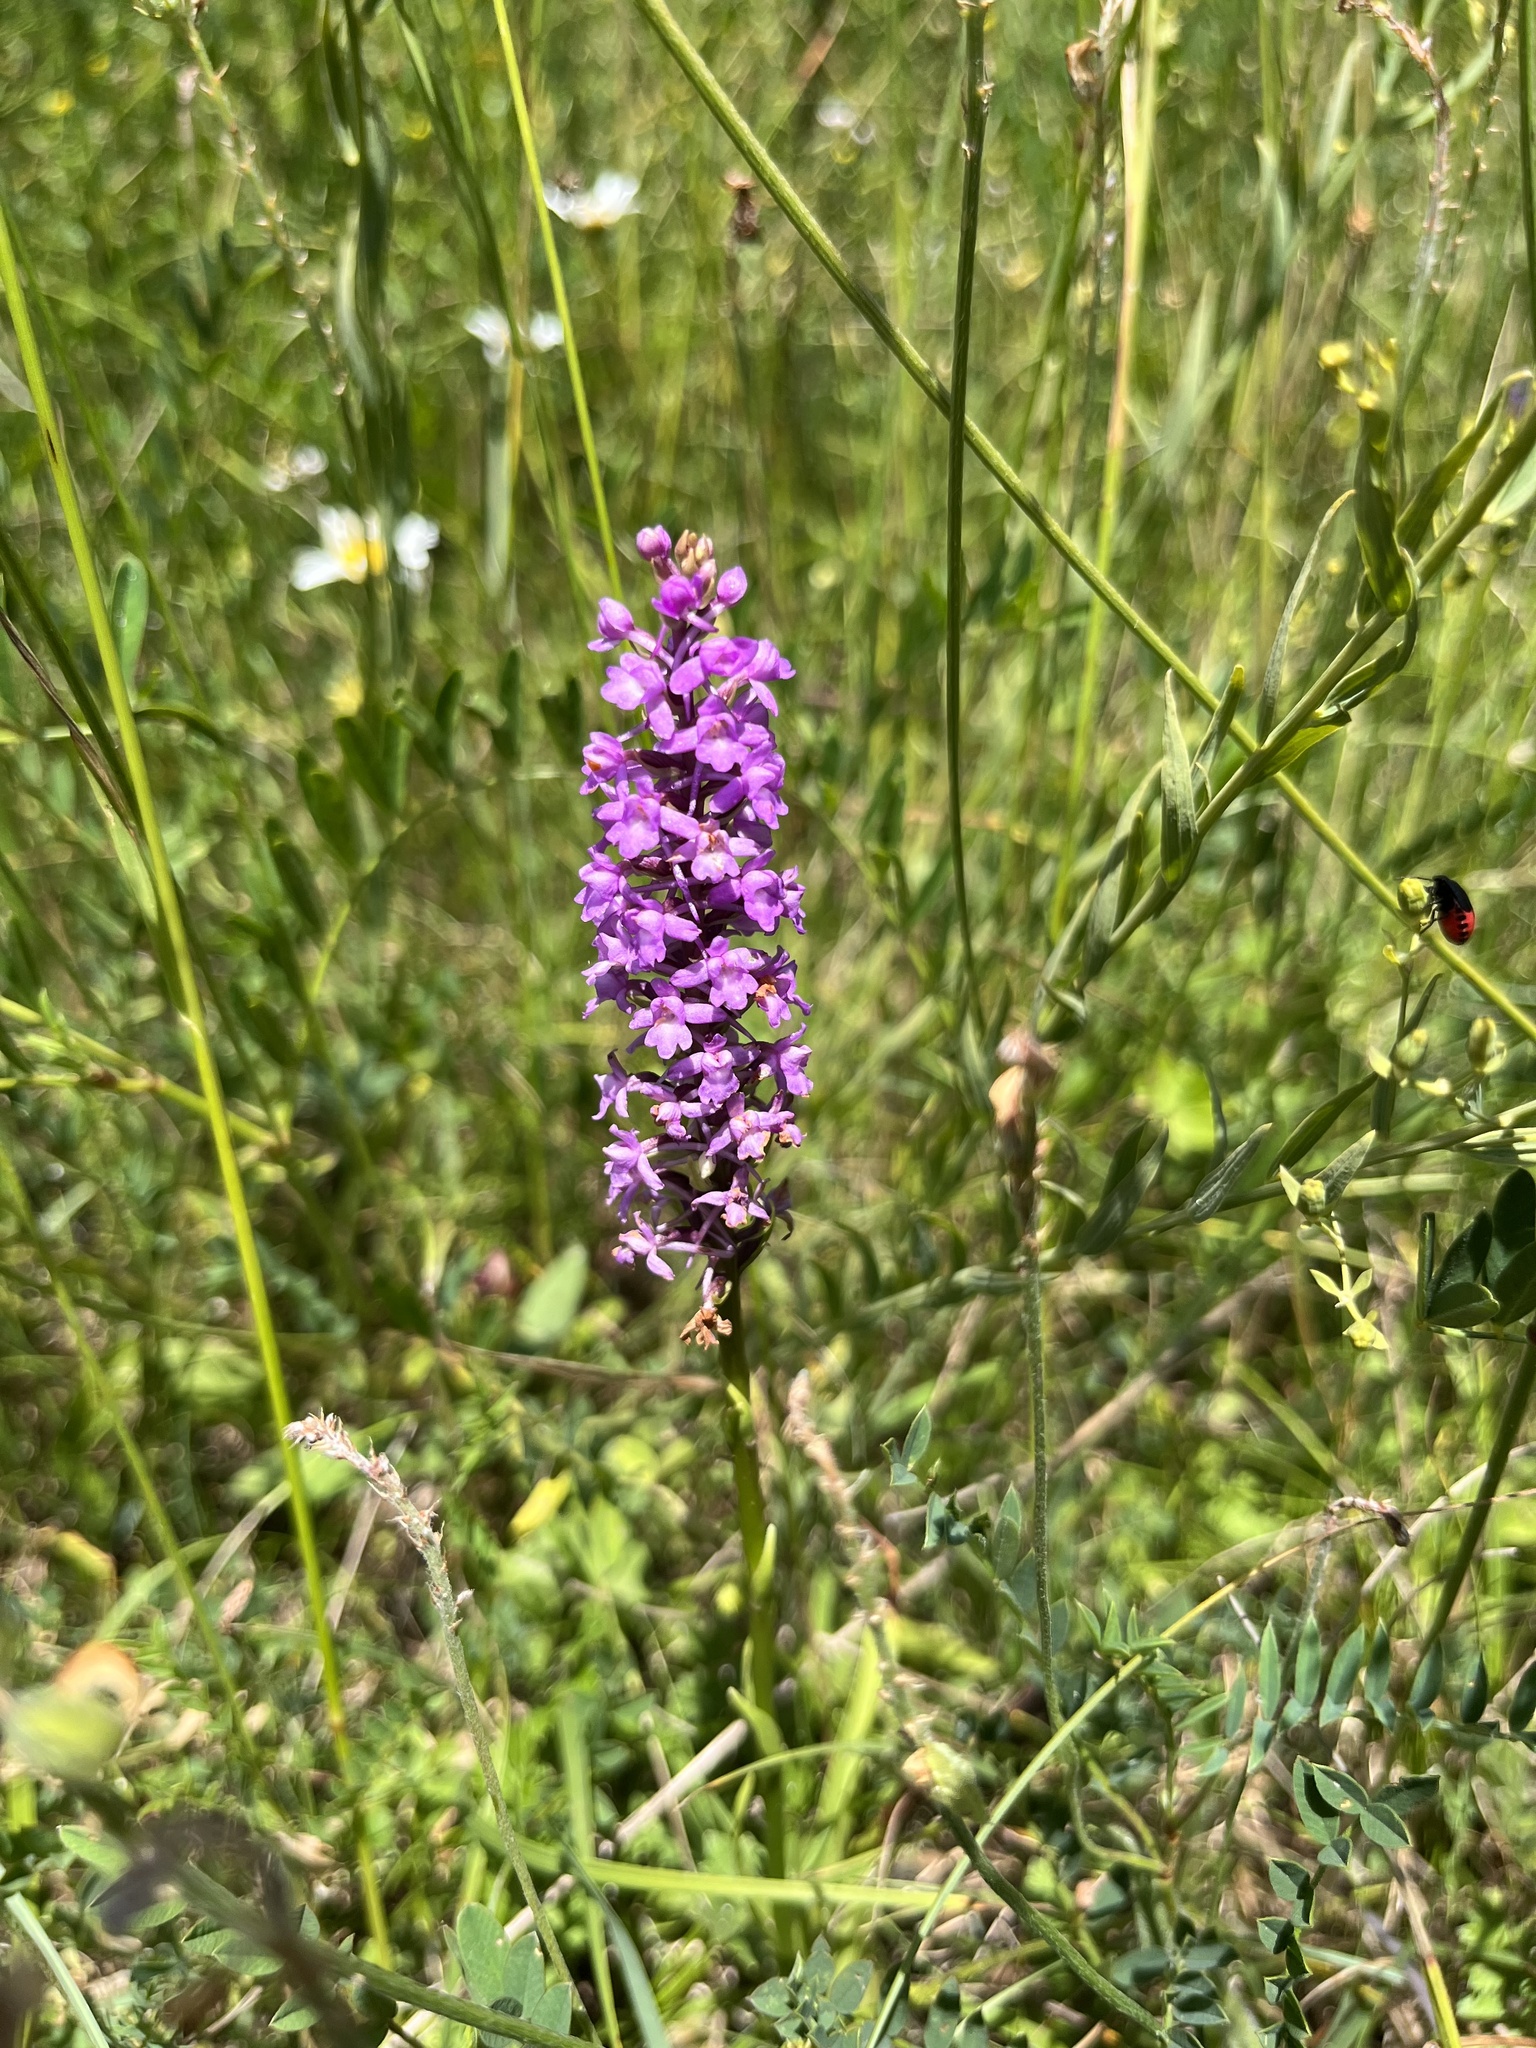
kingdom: Plantae
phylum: Tracheophyta
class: Liliopsida
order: Asparagales
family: Orchidaceae
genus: Gymnadenia
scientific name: Gymnadenia conopsea
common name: Fragrant orchid
